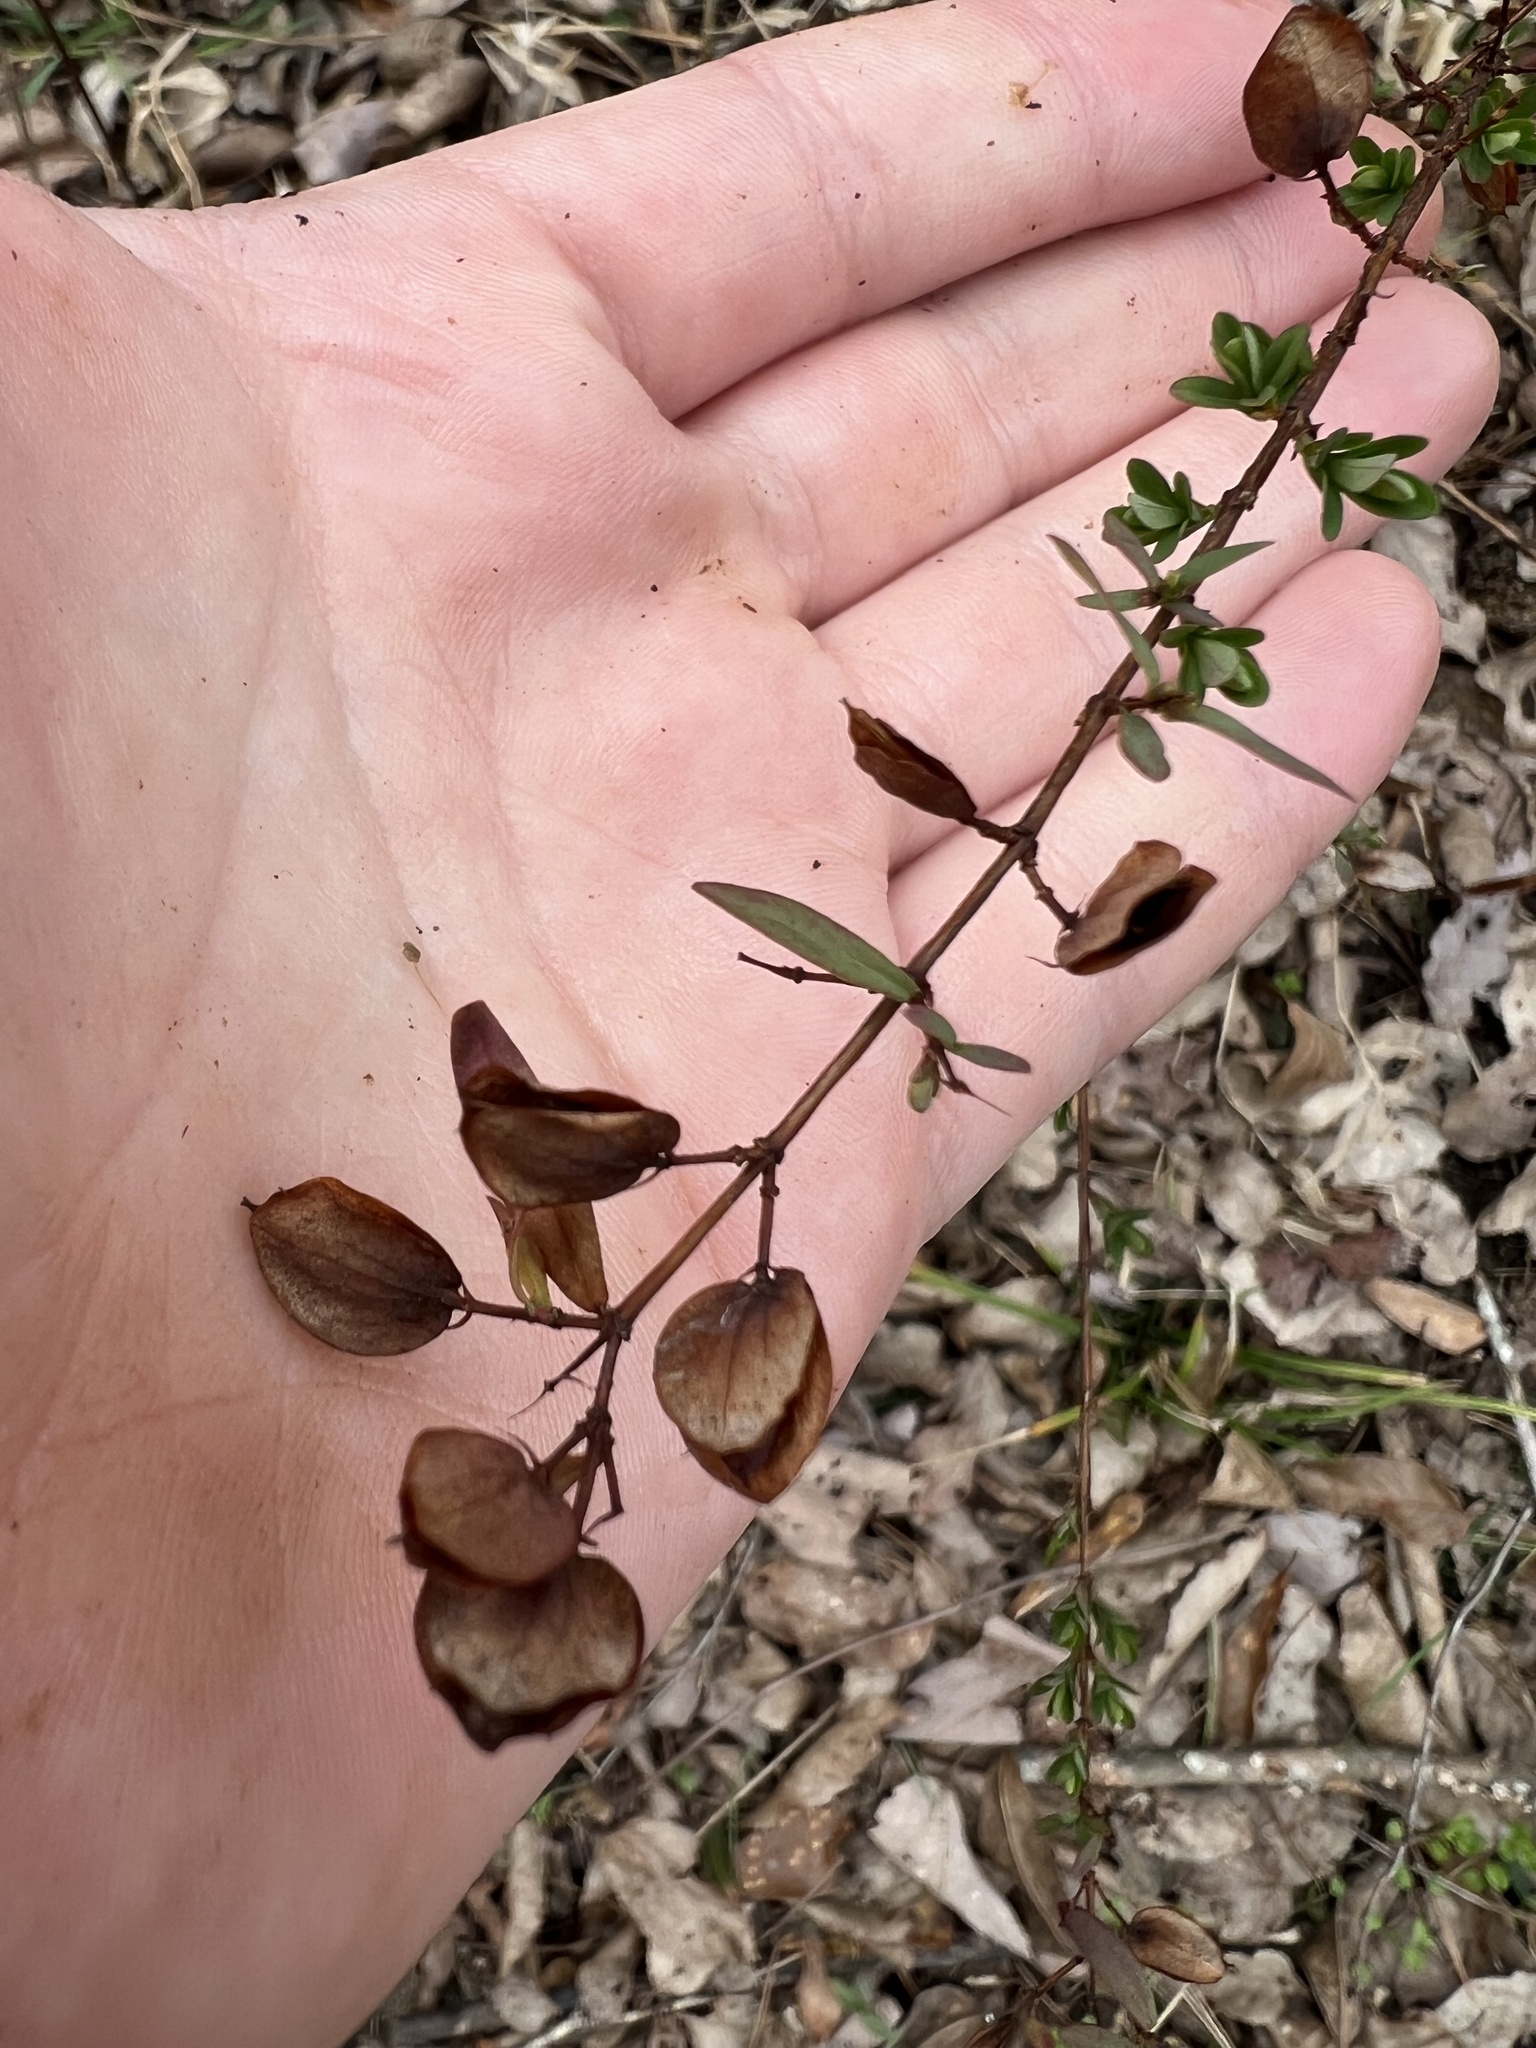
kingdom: Plantae
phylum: Tracheophyta
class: Magnoliopsida
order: Malpighiales
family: Hypericaceae
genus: Hypericum
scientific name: Hypericum crux-andreae
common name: St.-peter's-wort
